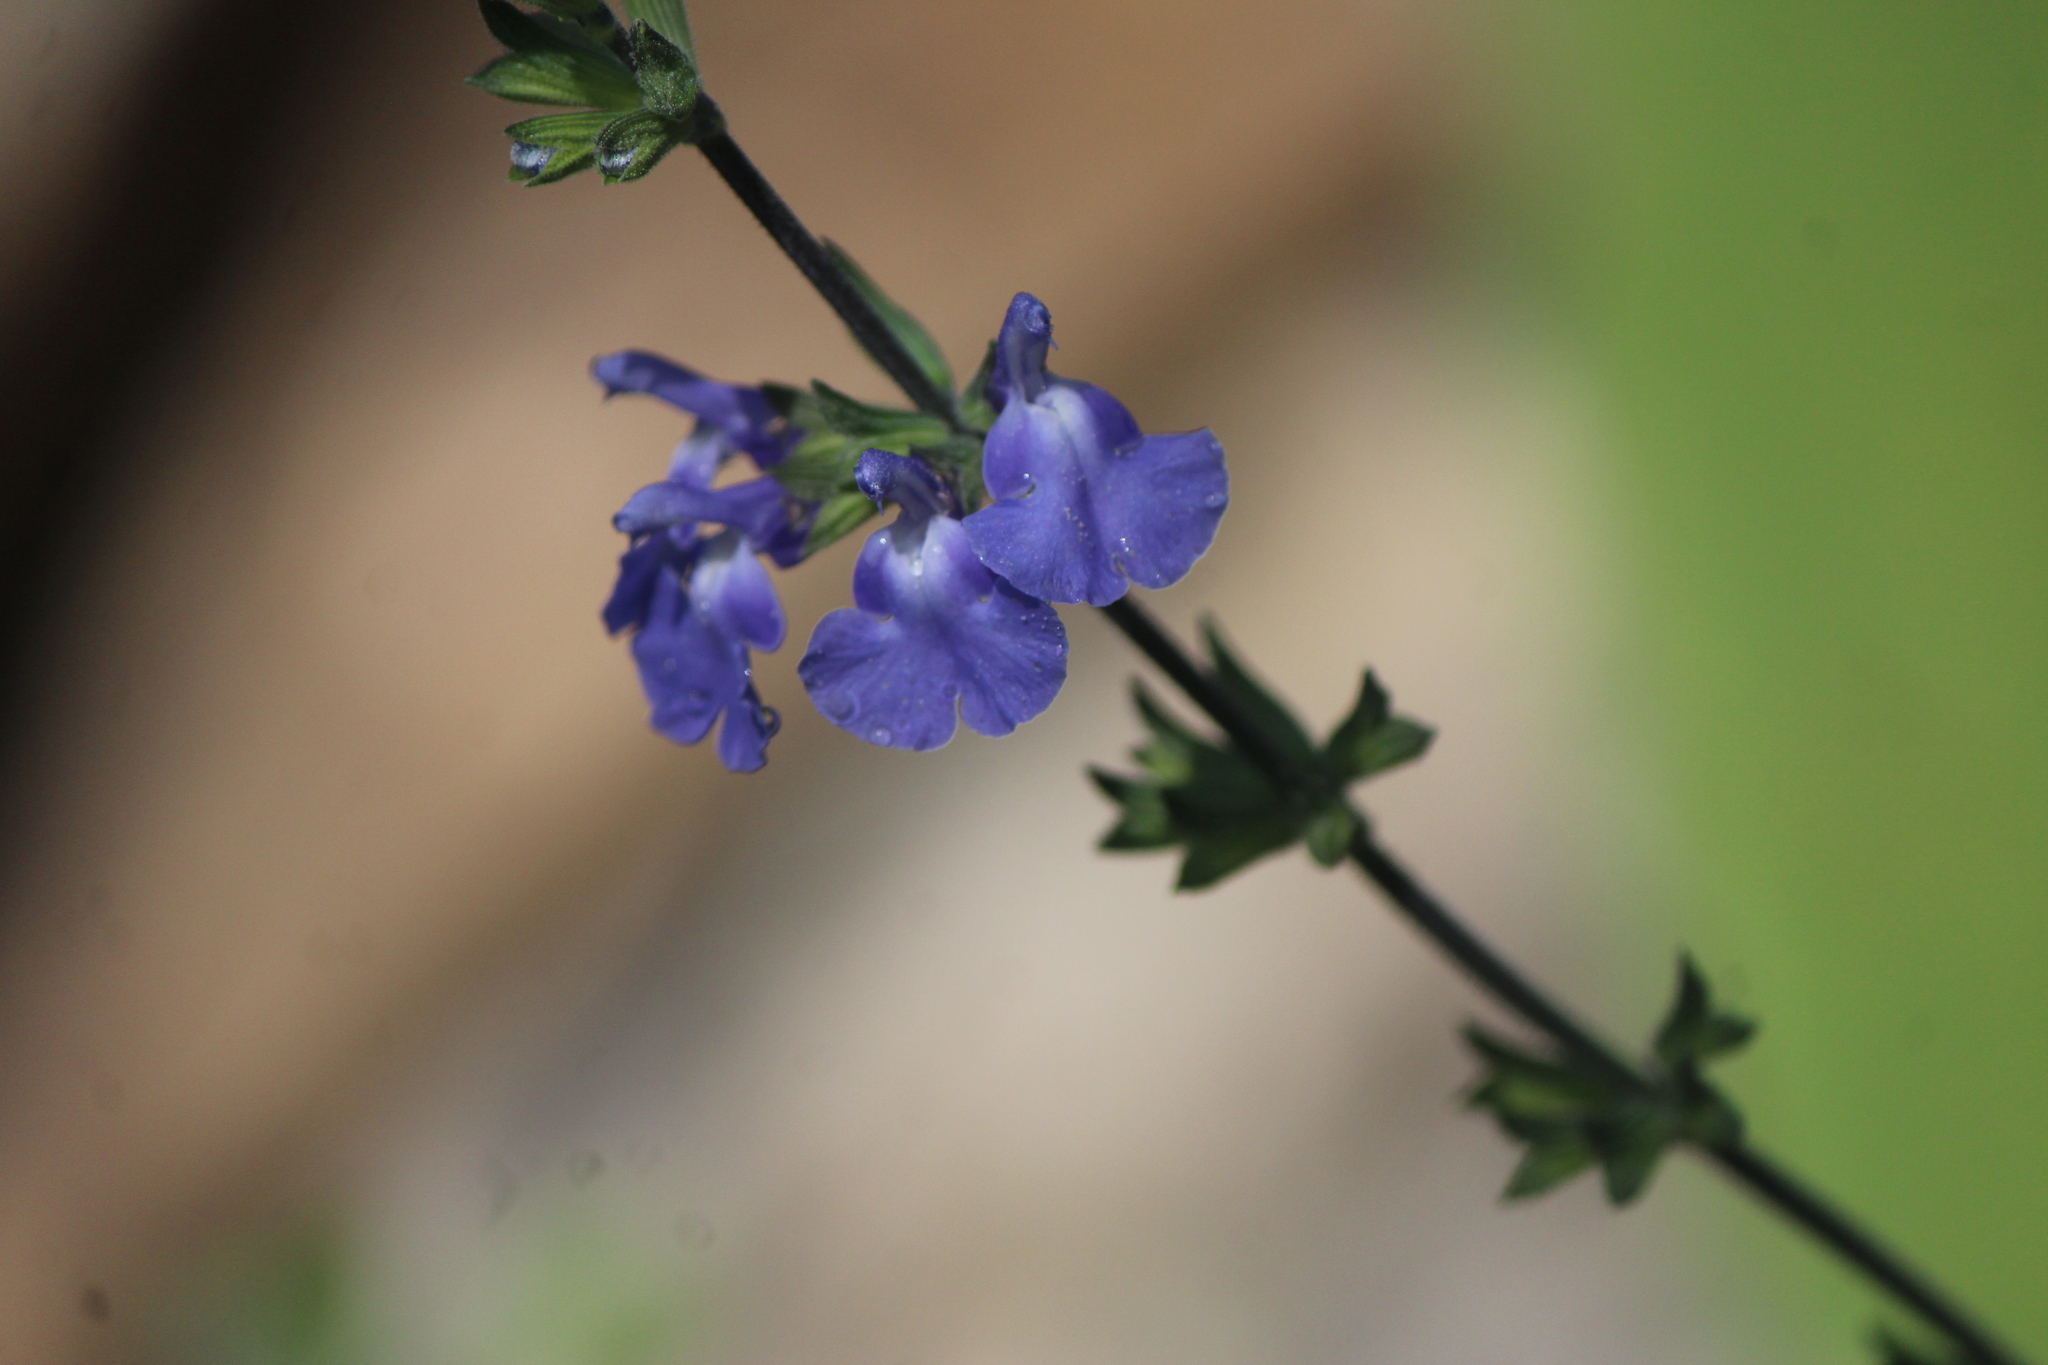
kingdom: Plantae
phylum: Tracheophyta
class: Magnoliopsida
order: Lamiales
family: Lamiaceae
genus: Salvia
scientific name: Salvia chamaedryoides
